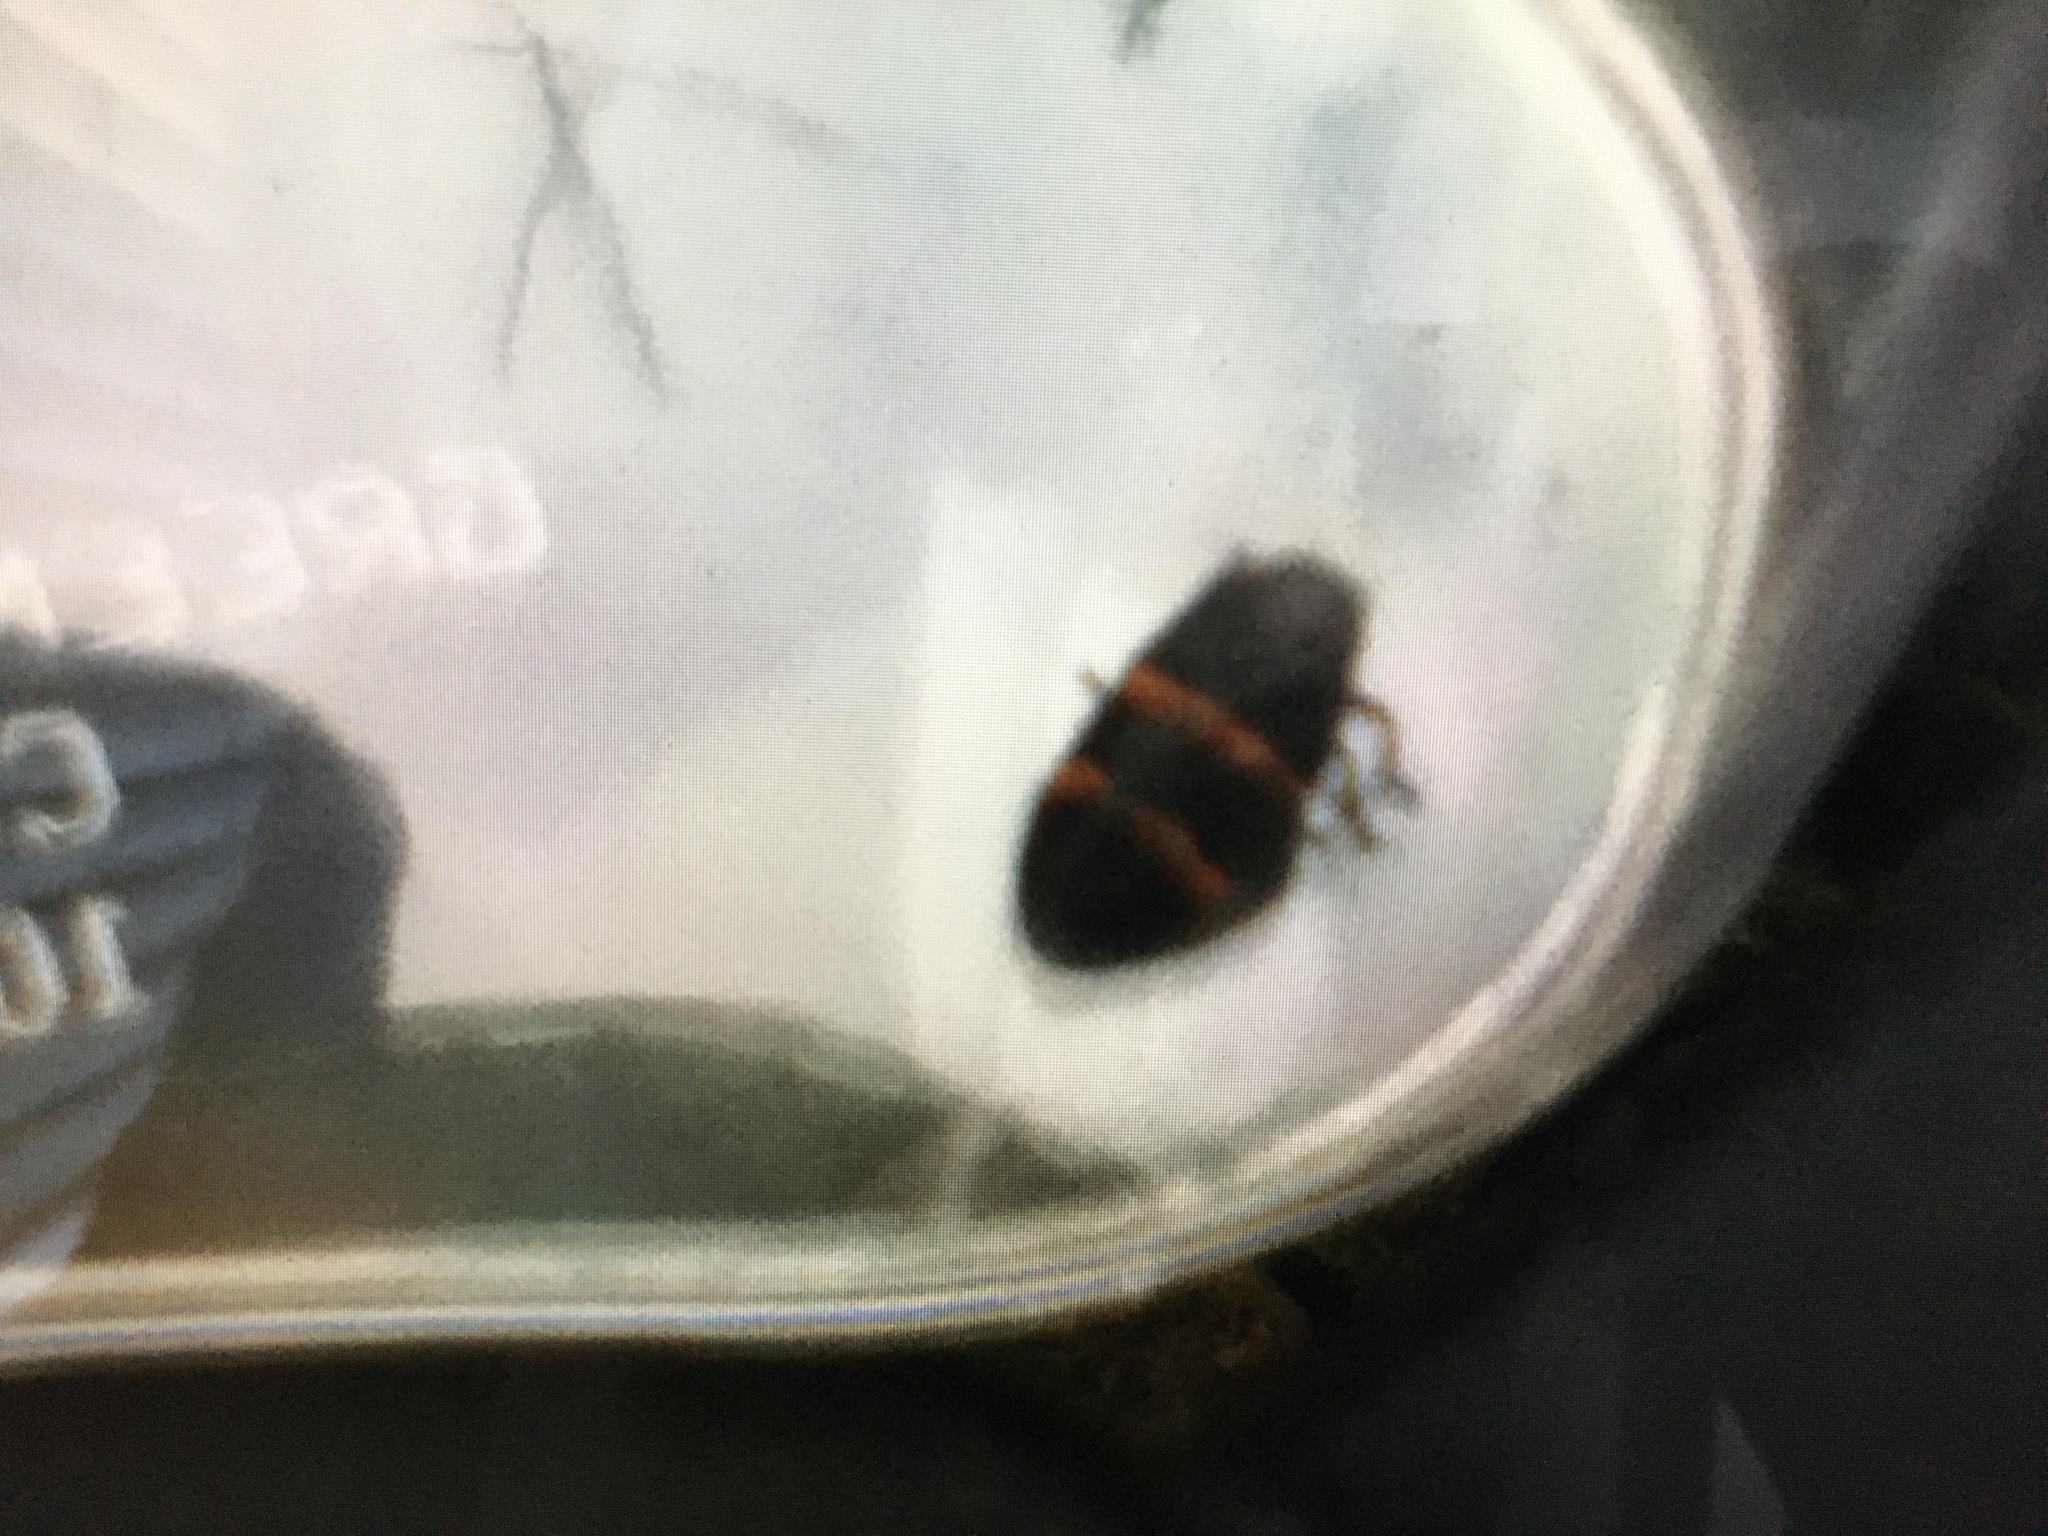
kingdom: Animalia
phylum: Arthropoda
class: Insecta
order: Hemiptera
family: Cercopidae
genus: Prosapia
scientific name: Prosapia bicincta
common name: Twolined spittlebug
